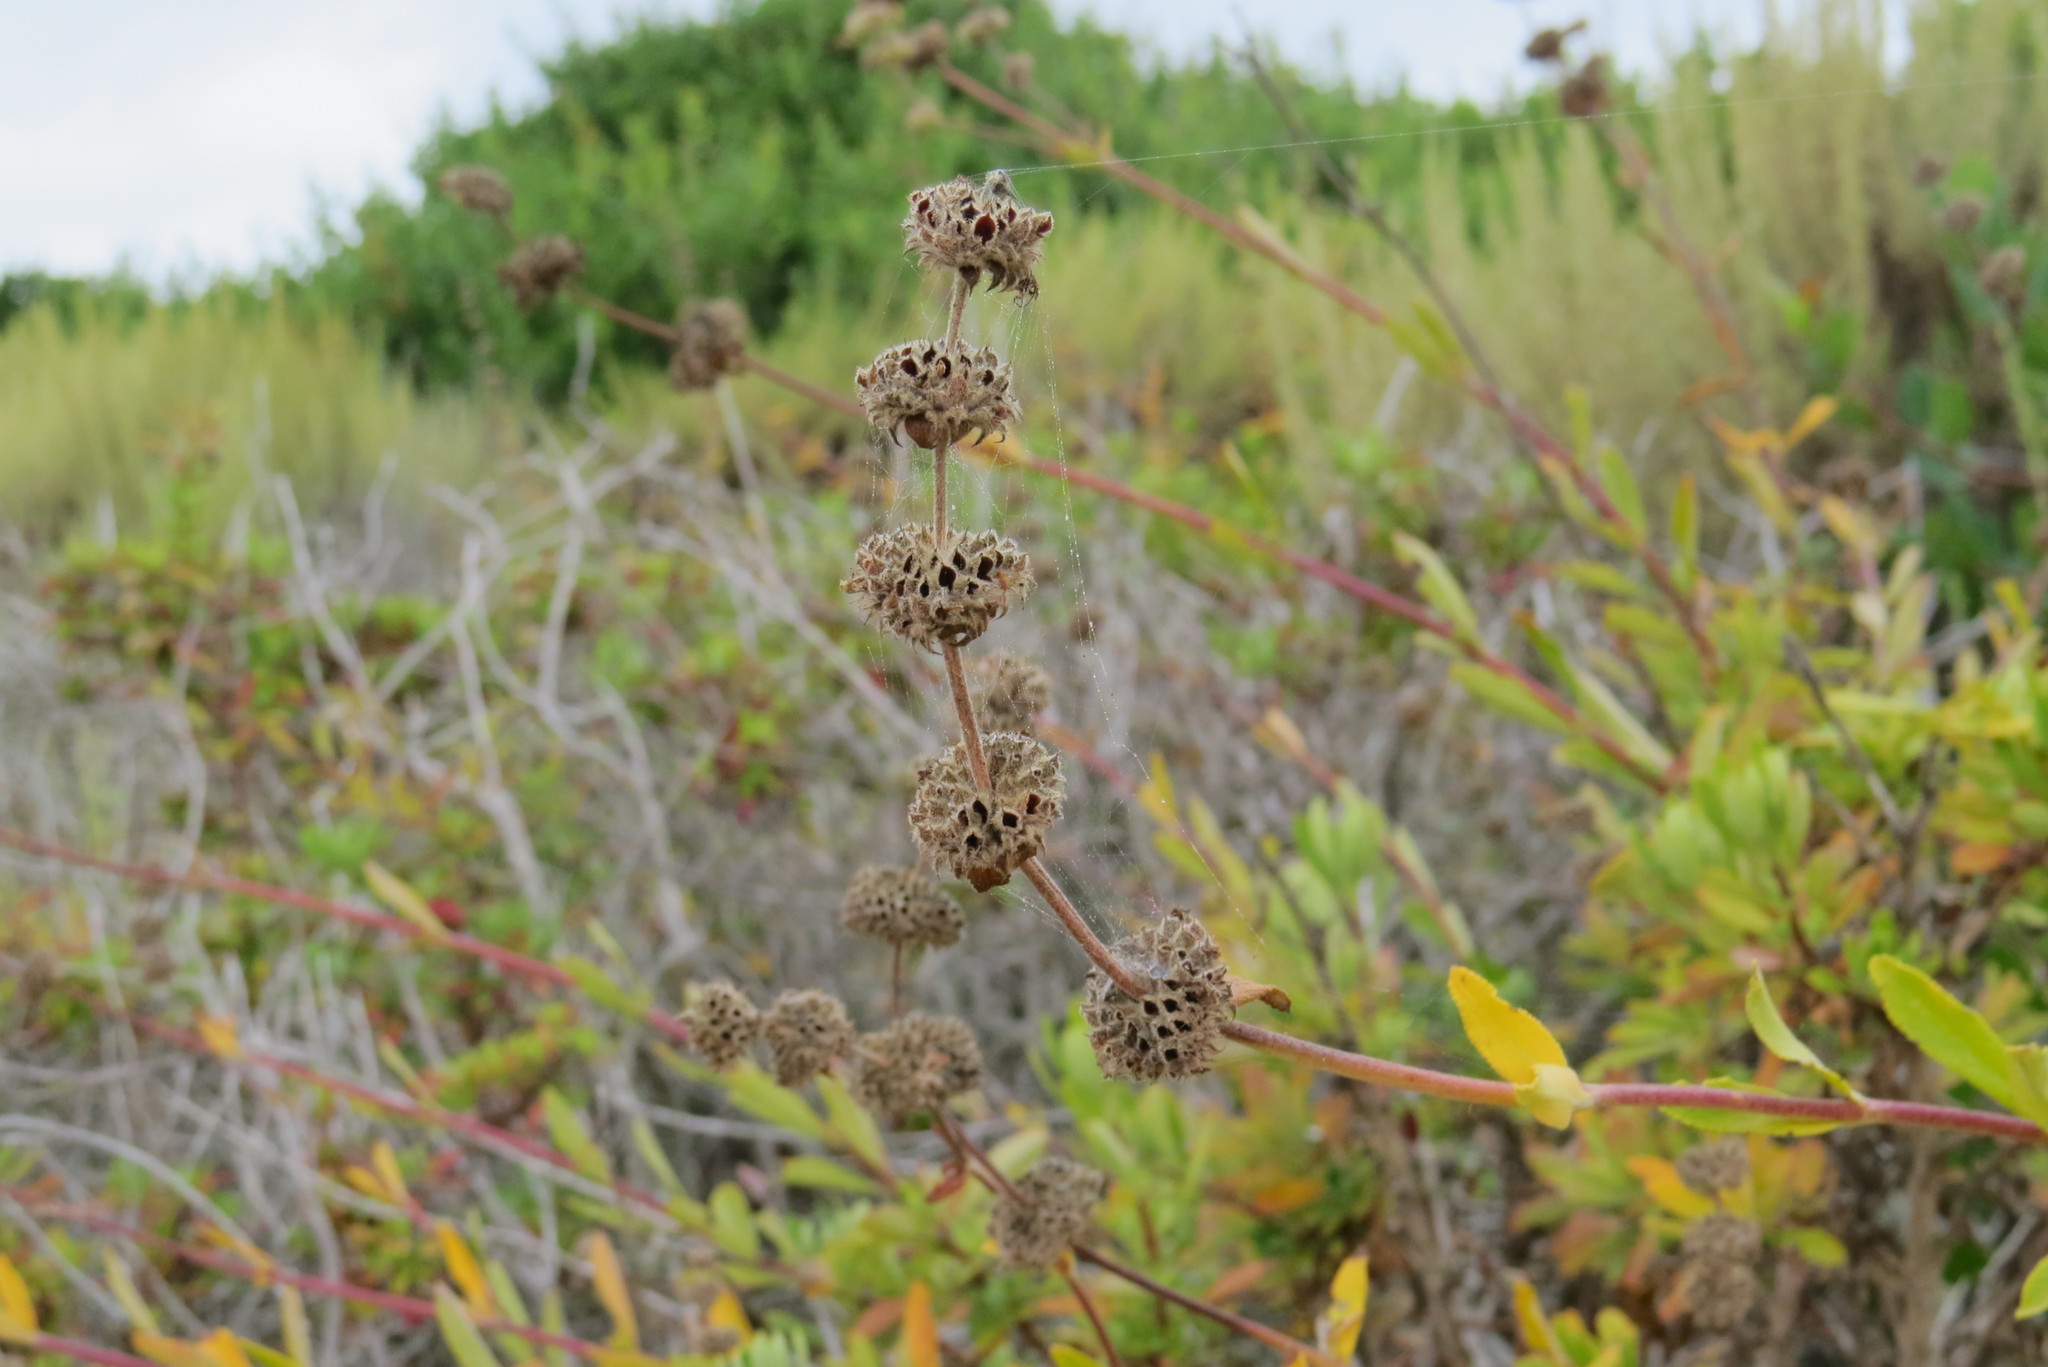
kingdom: Plantae
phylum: Tracheophyta
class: Magnoliopsida
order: Lamiales
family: Lamiaceae
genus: Salvia
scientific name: Salvia mellifera
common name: Black sage
